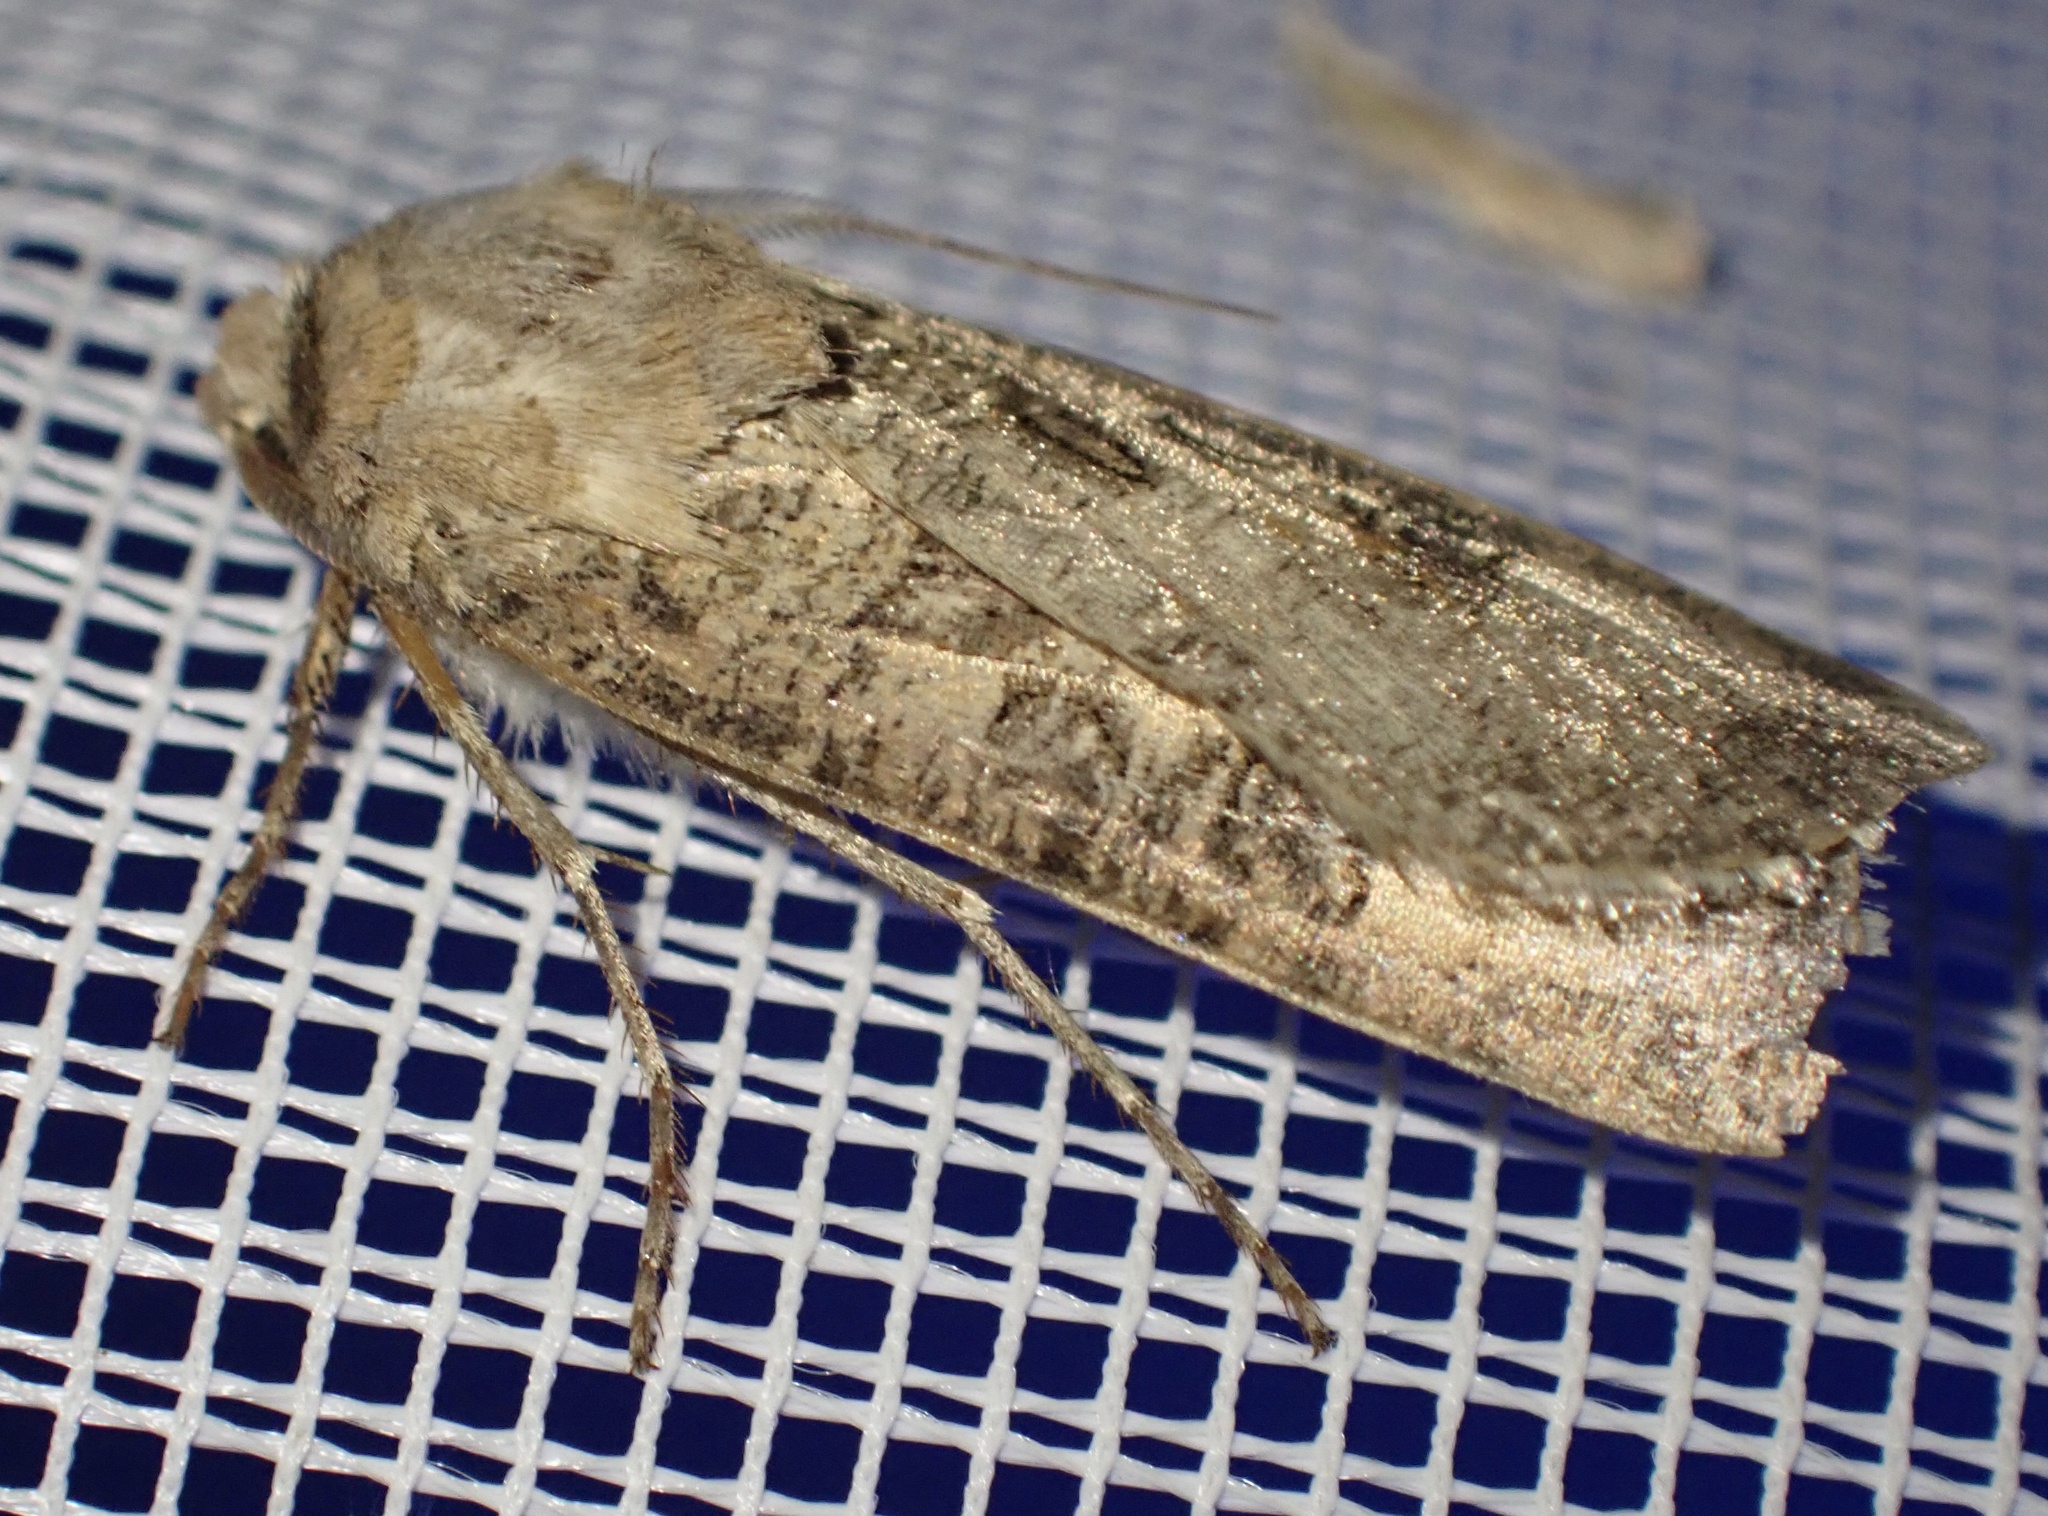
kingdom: Animalia
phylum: Arthropoda
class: Insecta
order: Lepidoptera
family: Noctuidae
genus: Agrotis
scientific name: Agrotis segetum
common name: Turnip moth
